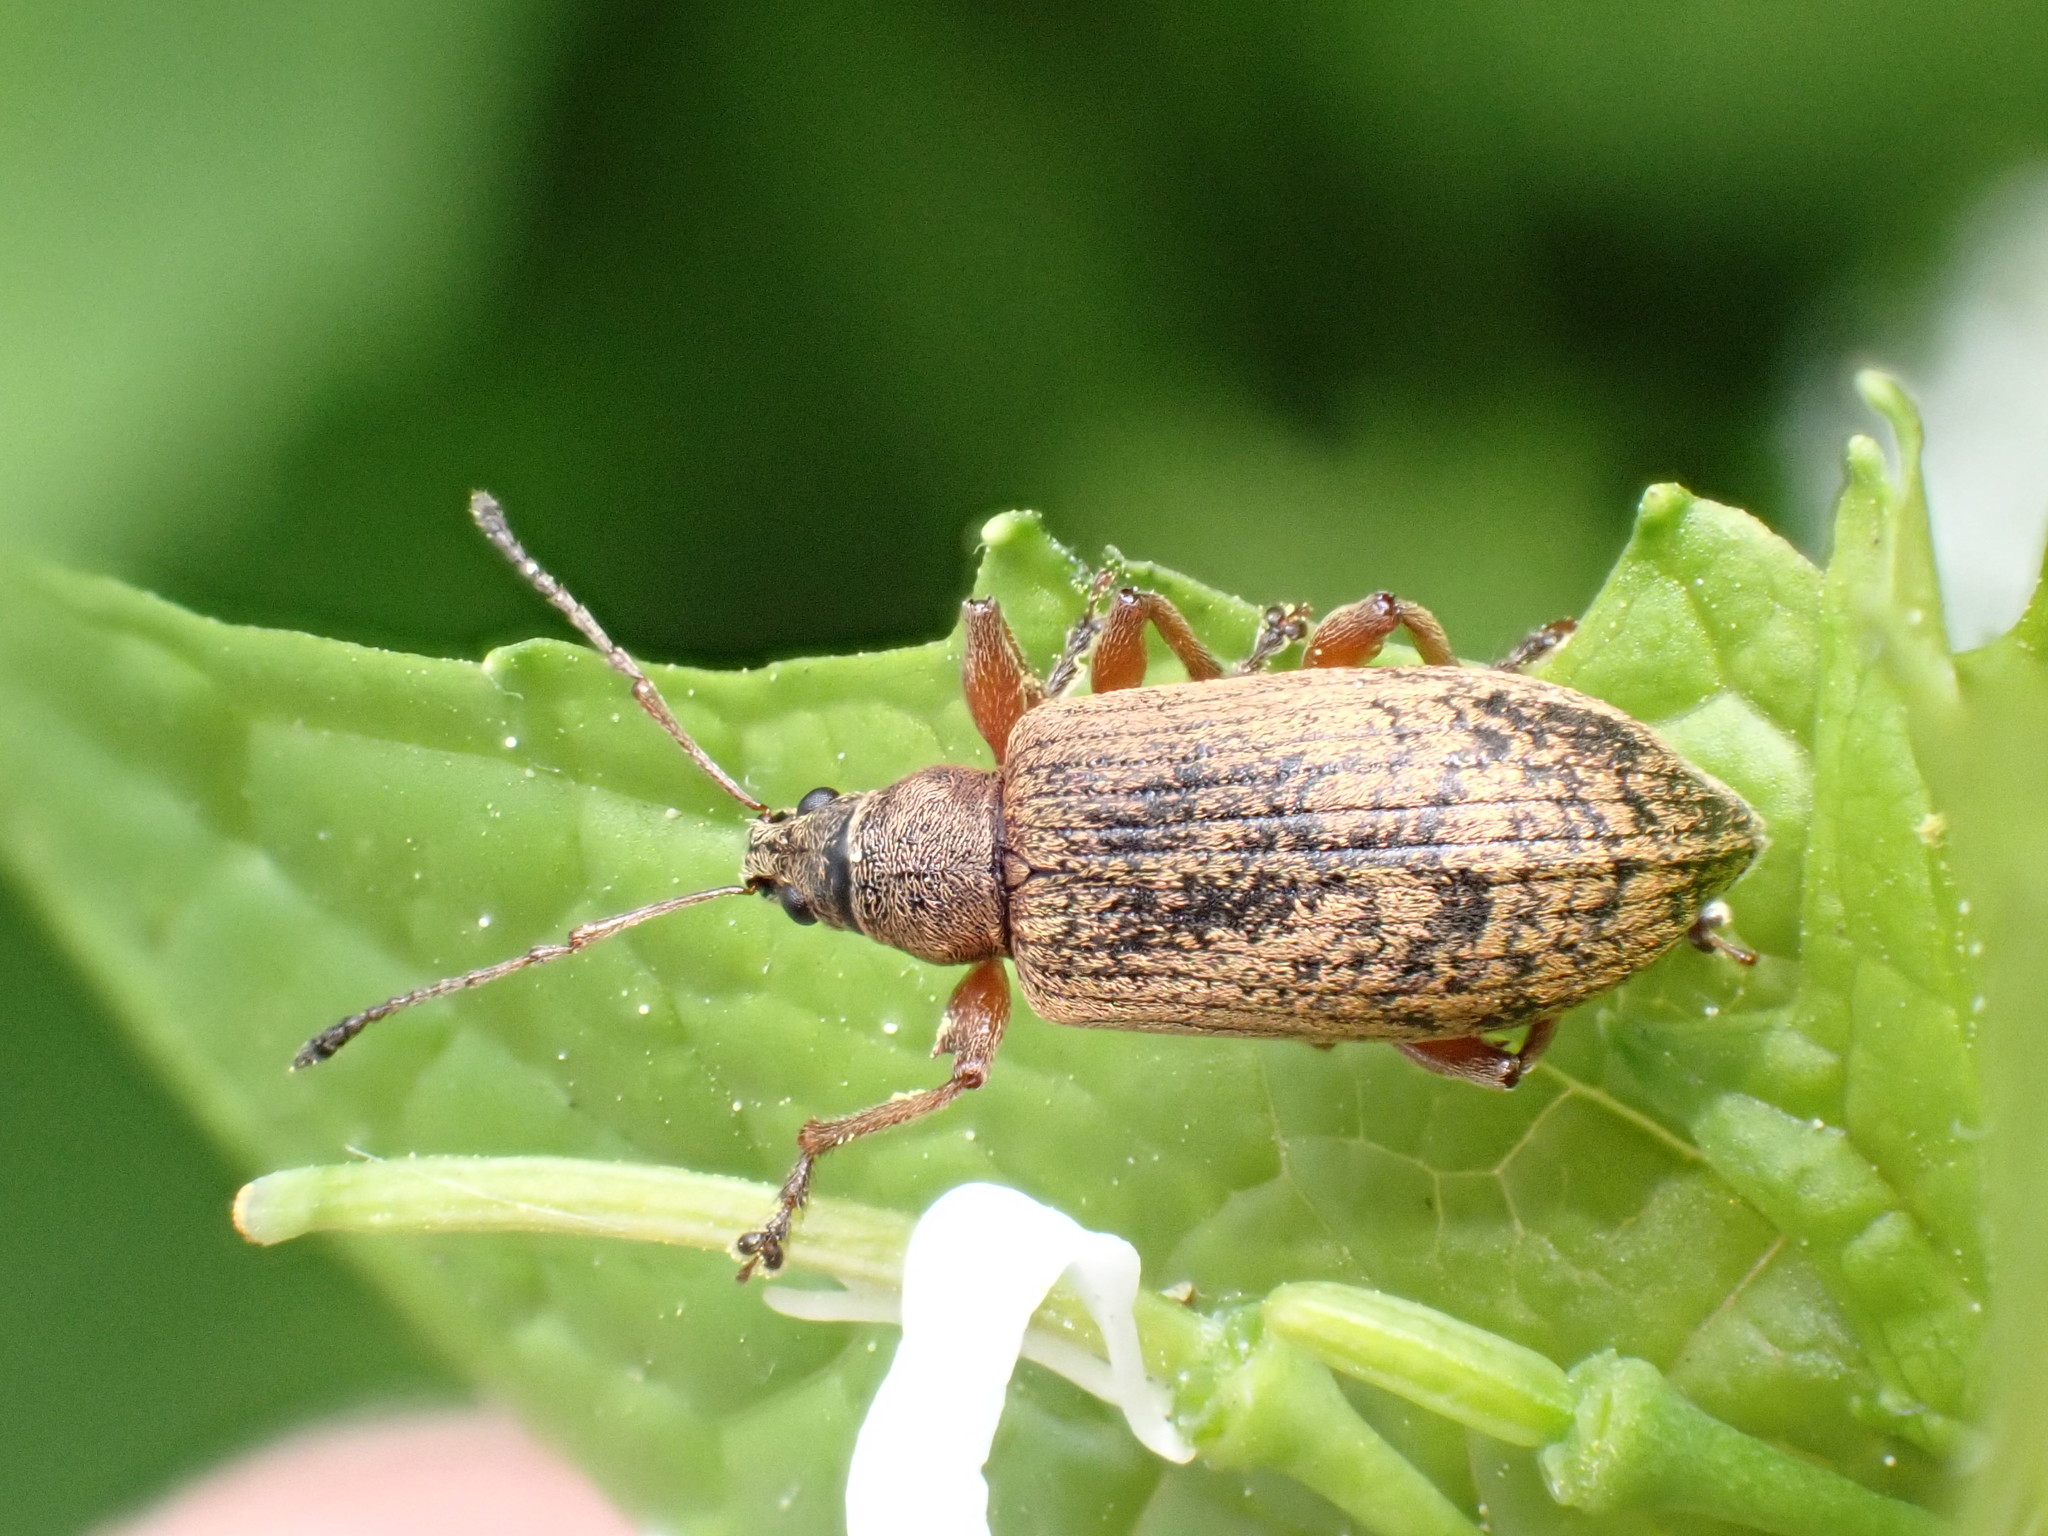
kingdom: Animalia
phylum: Arthropoda
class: Insecta
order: Coleoptera
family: Curculionidae
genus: Phyllobius
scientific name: Phyllobius glaucus
